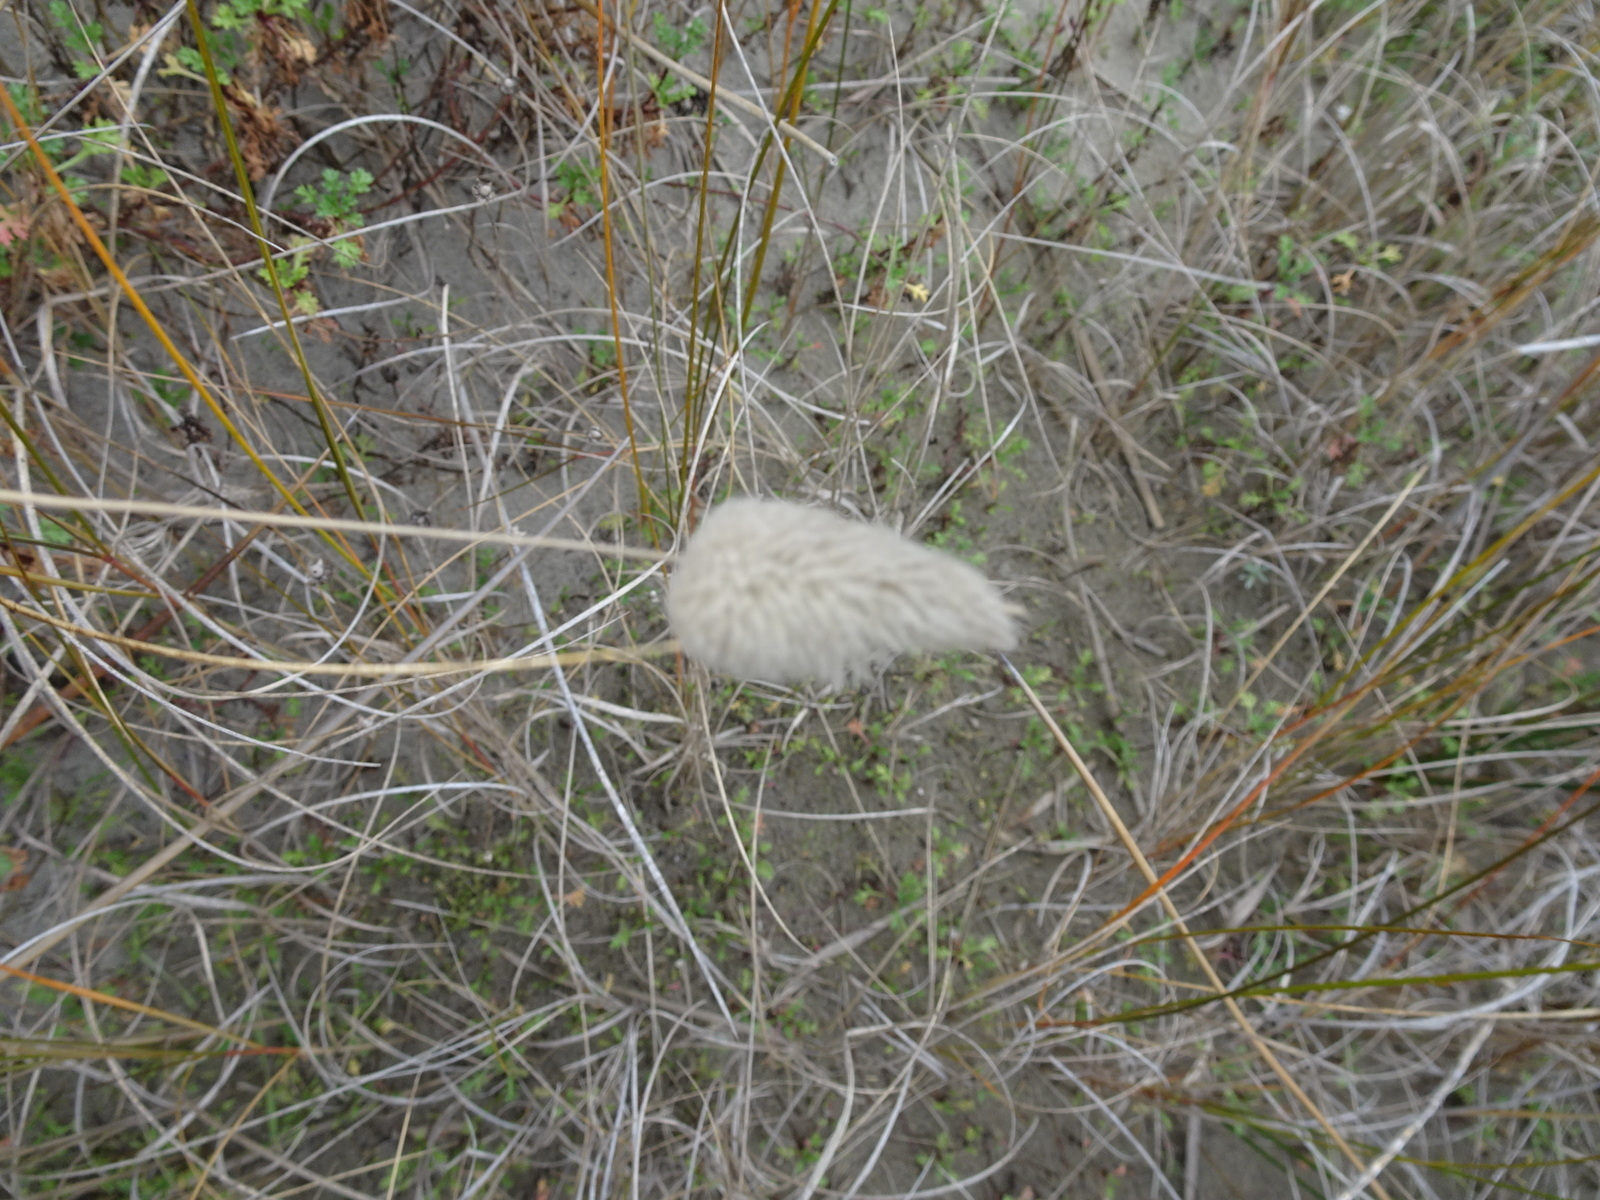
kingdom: Plantae
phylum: Tracheophyta
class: Liliopsida
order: Poales
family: Poaceae
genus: Lagurus
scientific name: Lagurus ovatus
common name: Hare's-tail
